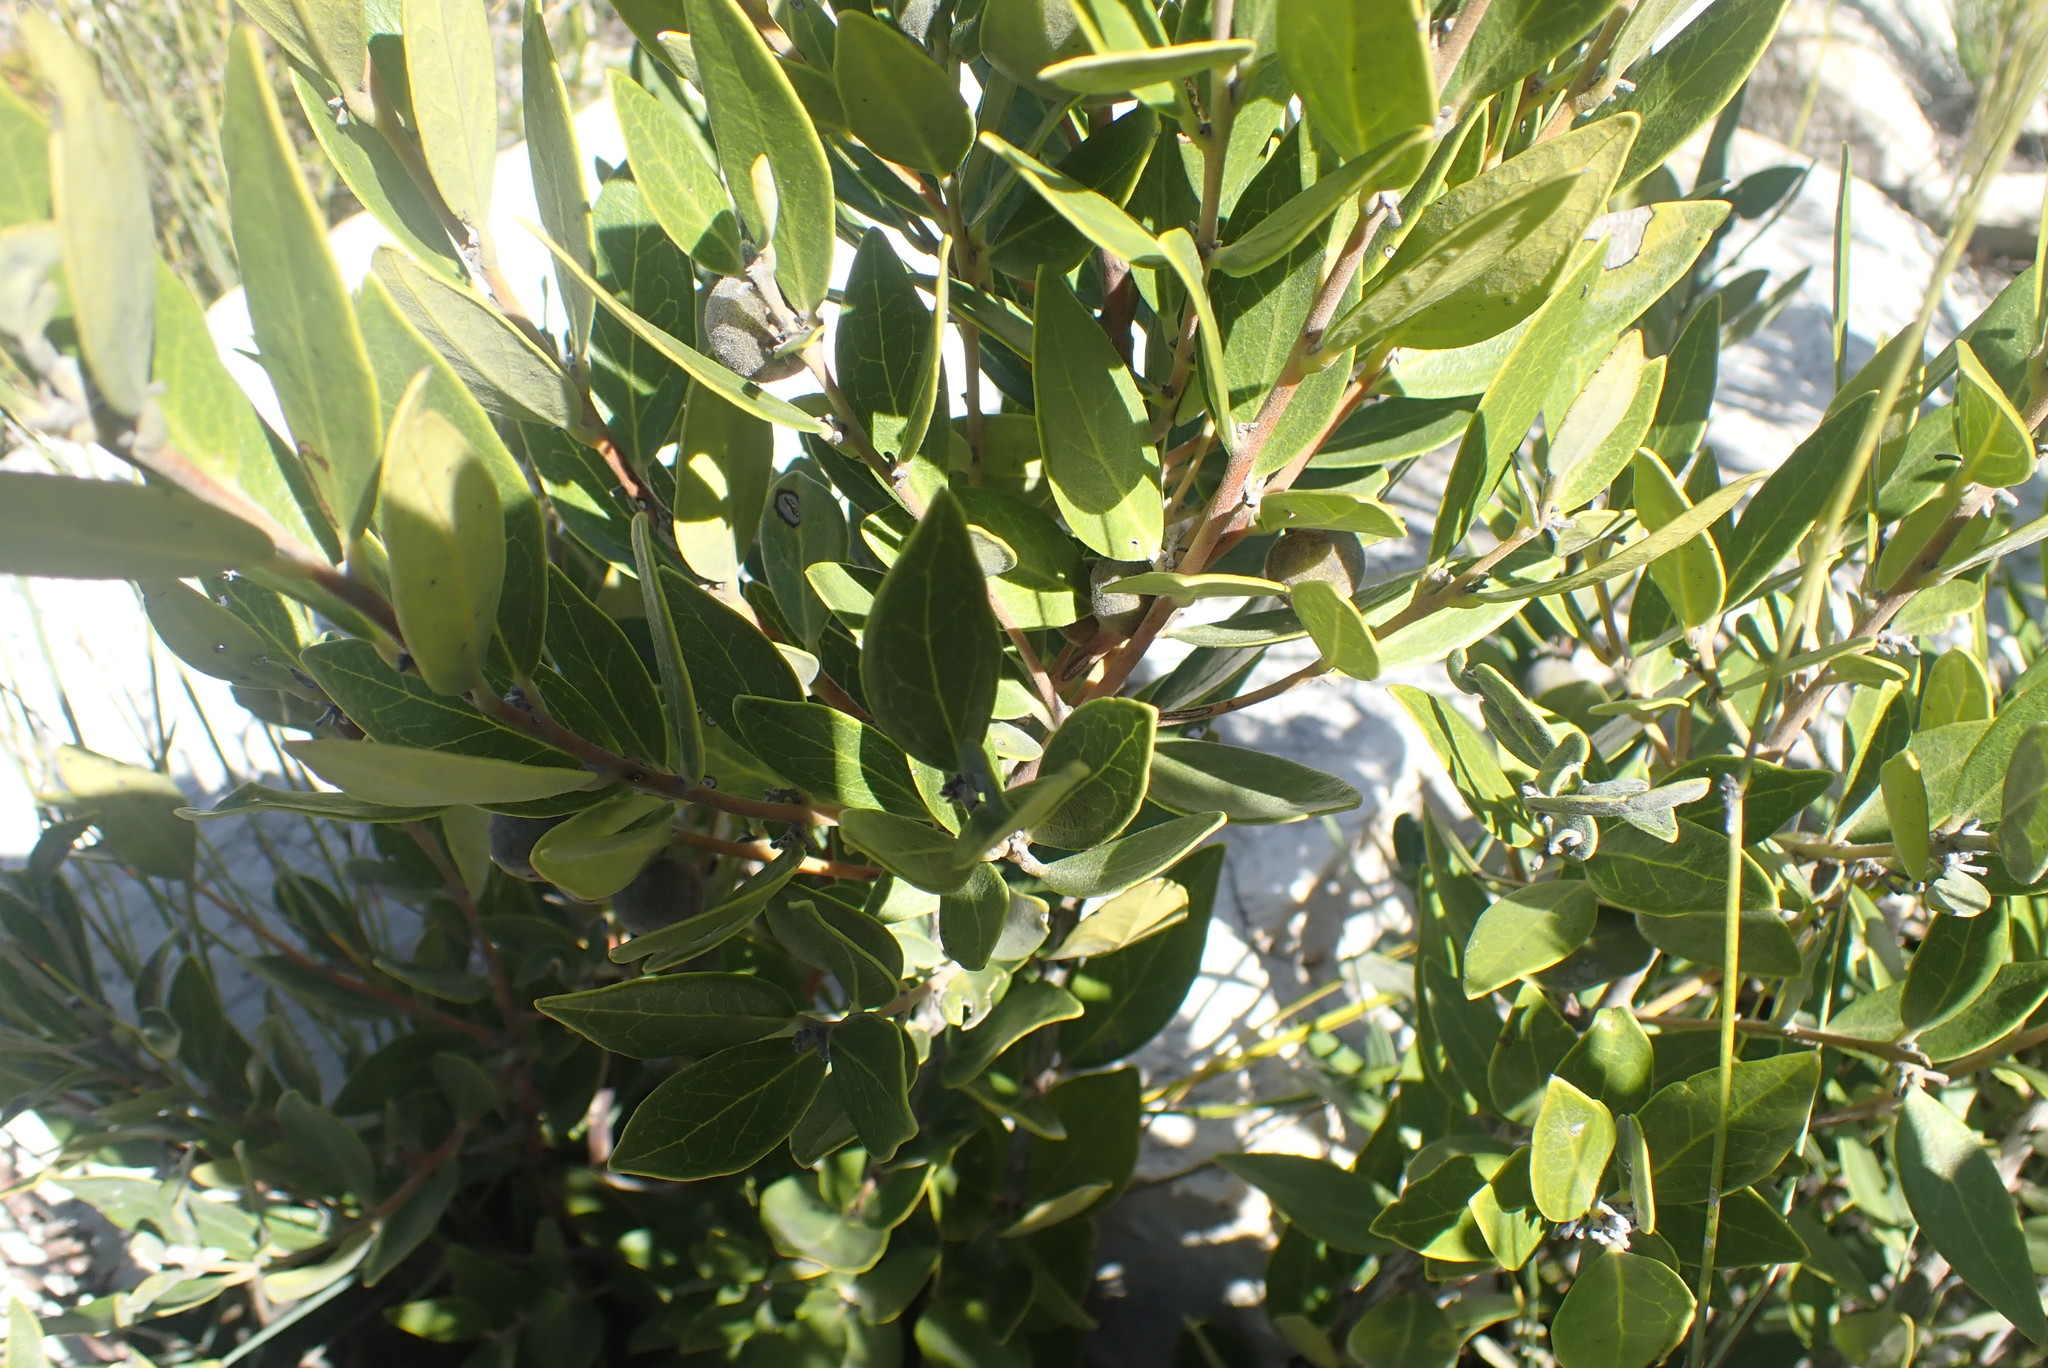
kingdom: Plantae
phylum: Tracheophyta
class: Magnoliopsida
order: Ericales
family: Ebenaceae
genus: Euclea
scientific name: Euclea polyandra
